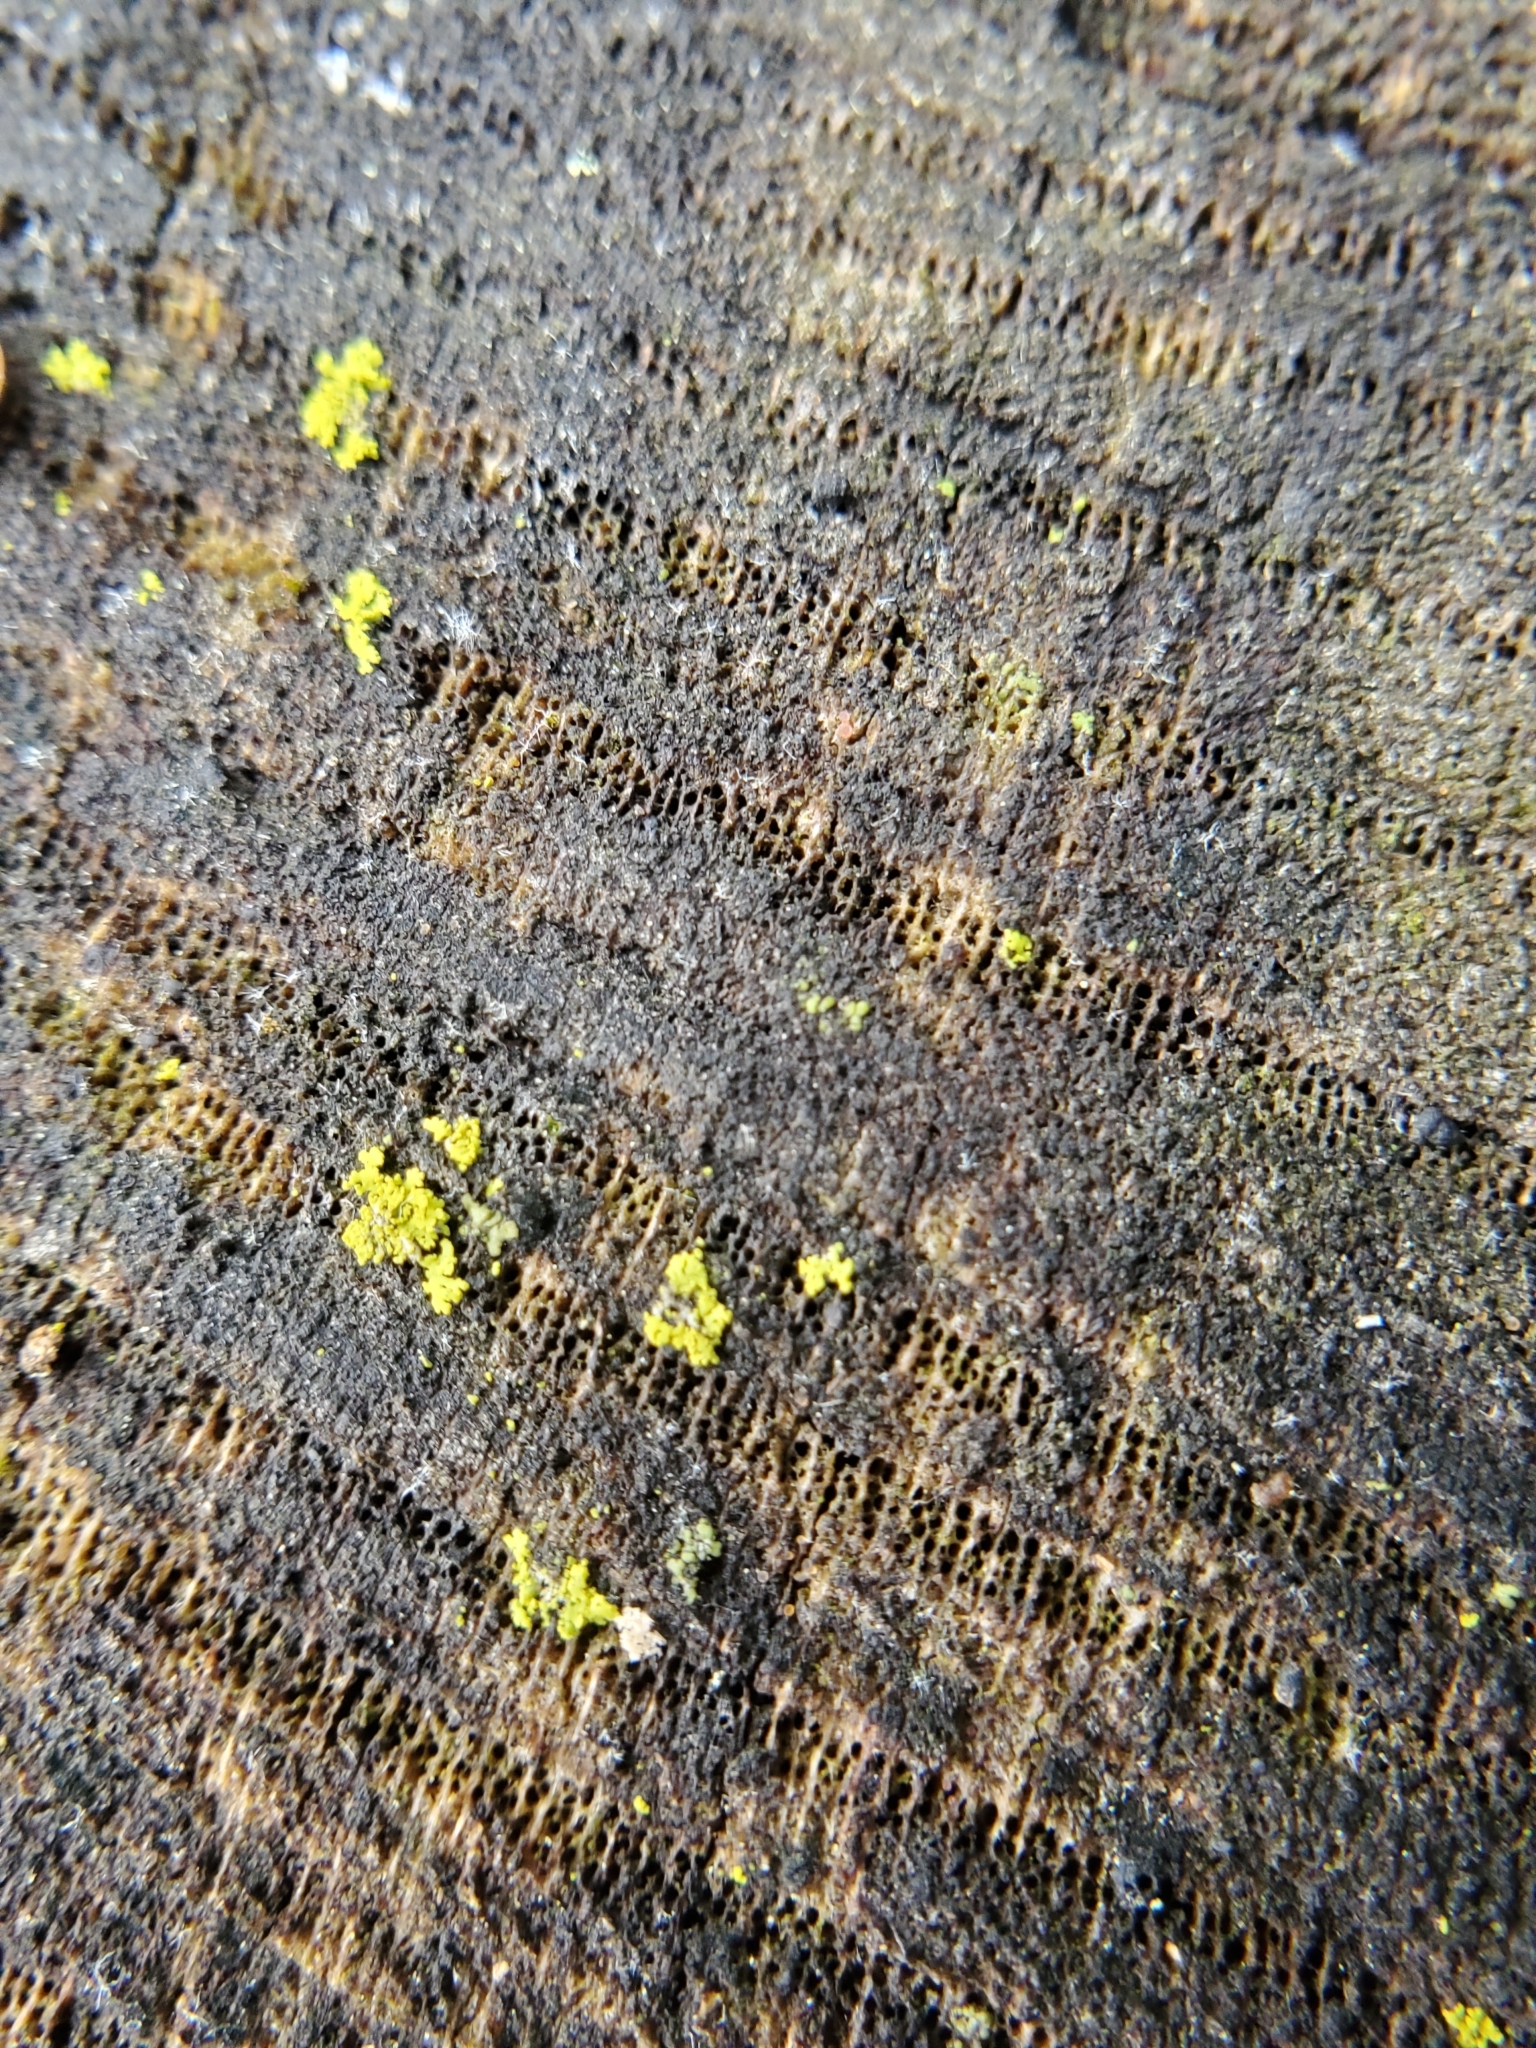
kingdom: Fungi
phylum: Ascomycota
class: Candelariomycetes
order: Candelariales
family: Candelariaceae
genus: Candelaria
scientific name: Candelaria concolor
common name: Candleflame lichen
